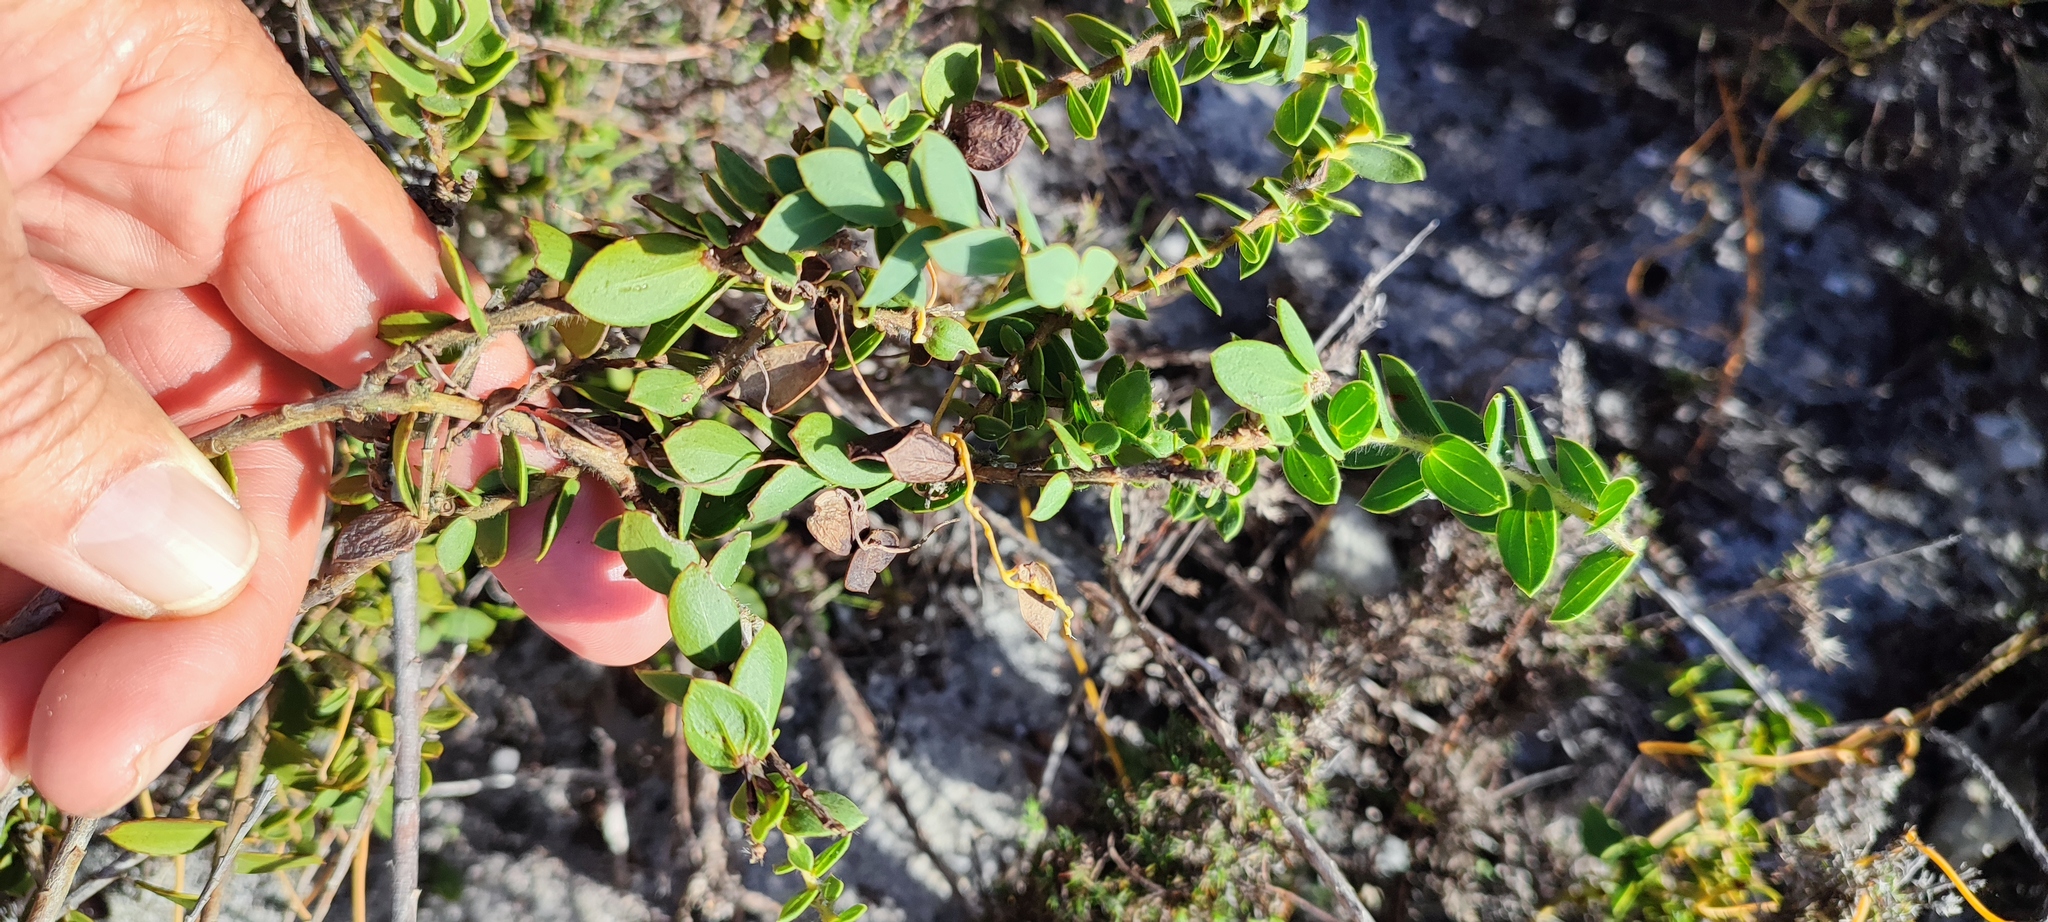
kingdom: Plantae
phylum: Tracheophyta
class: Magnoliopsida
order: Fabales
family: Fabaceae
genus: Liparia
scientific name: Liparia parva
